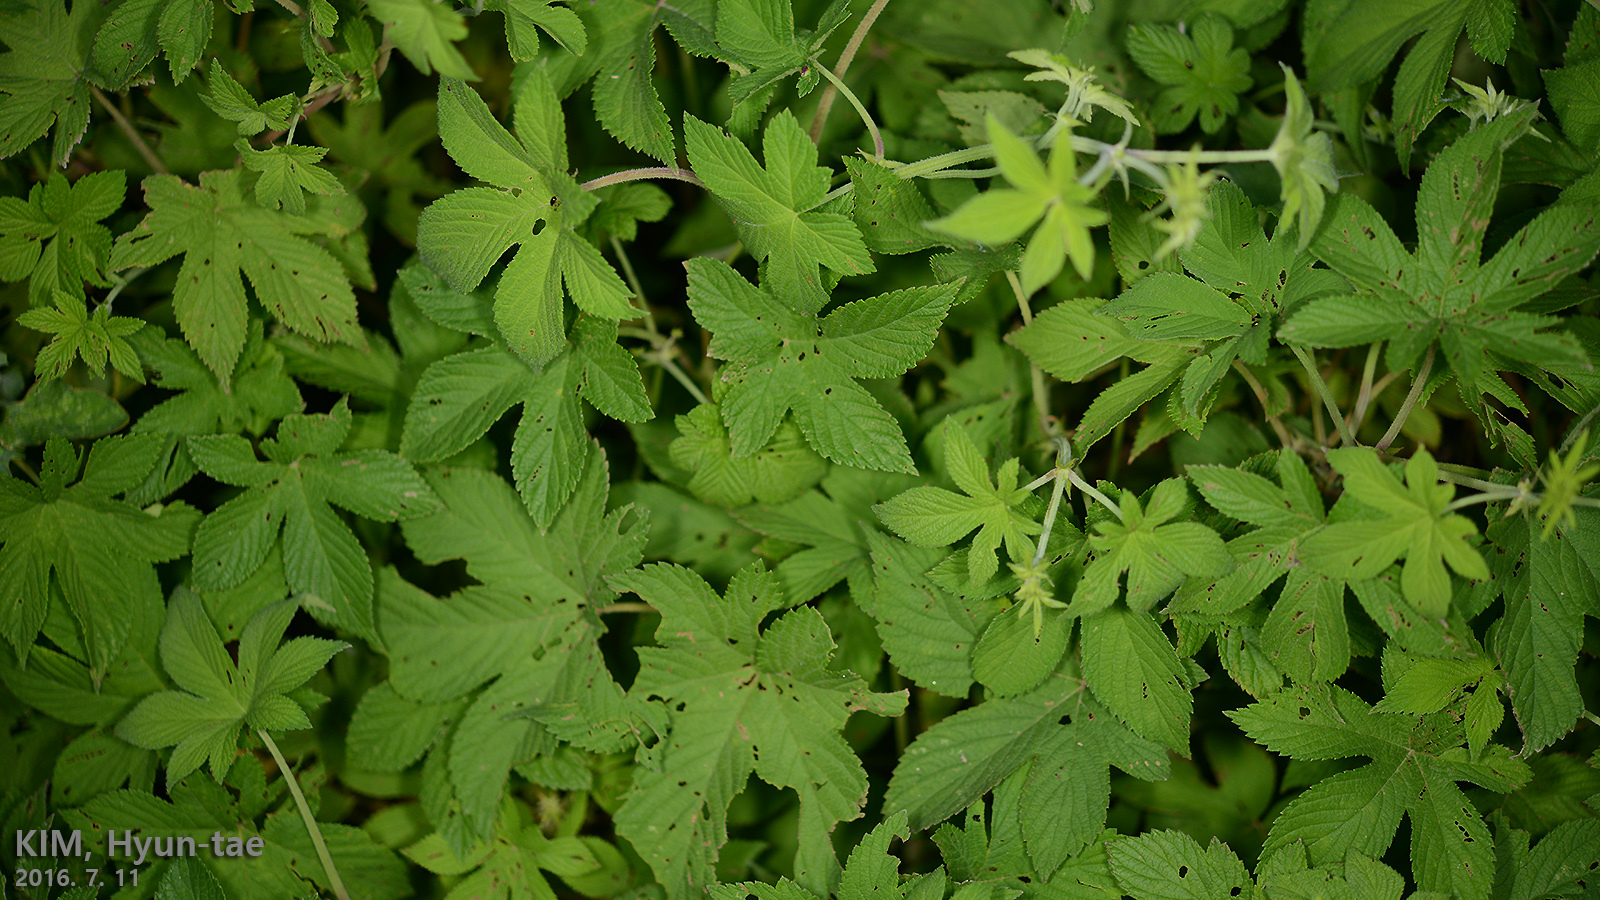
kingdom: Plantae
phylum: Tracheophyta
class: Magnoliopsida
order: Rosales
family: Cannabaceae
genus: Humulus
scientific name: Humulus scandens
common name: Japanese hop
